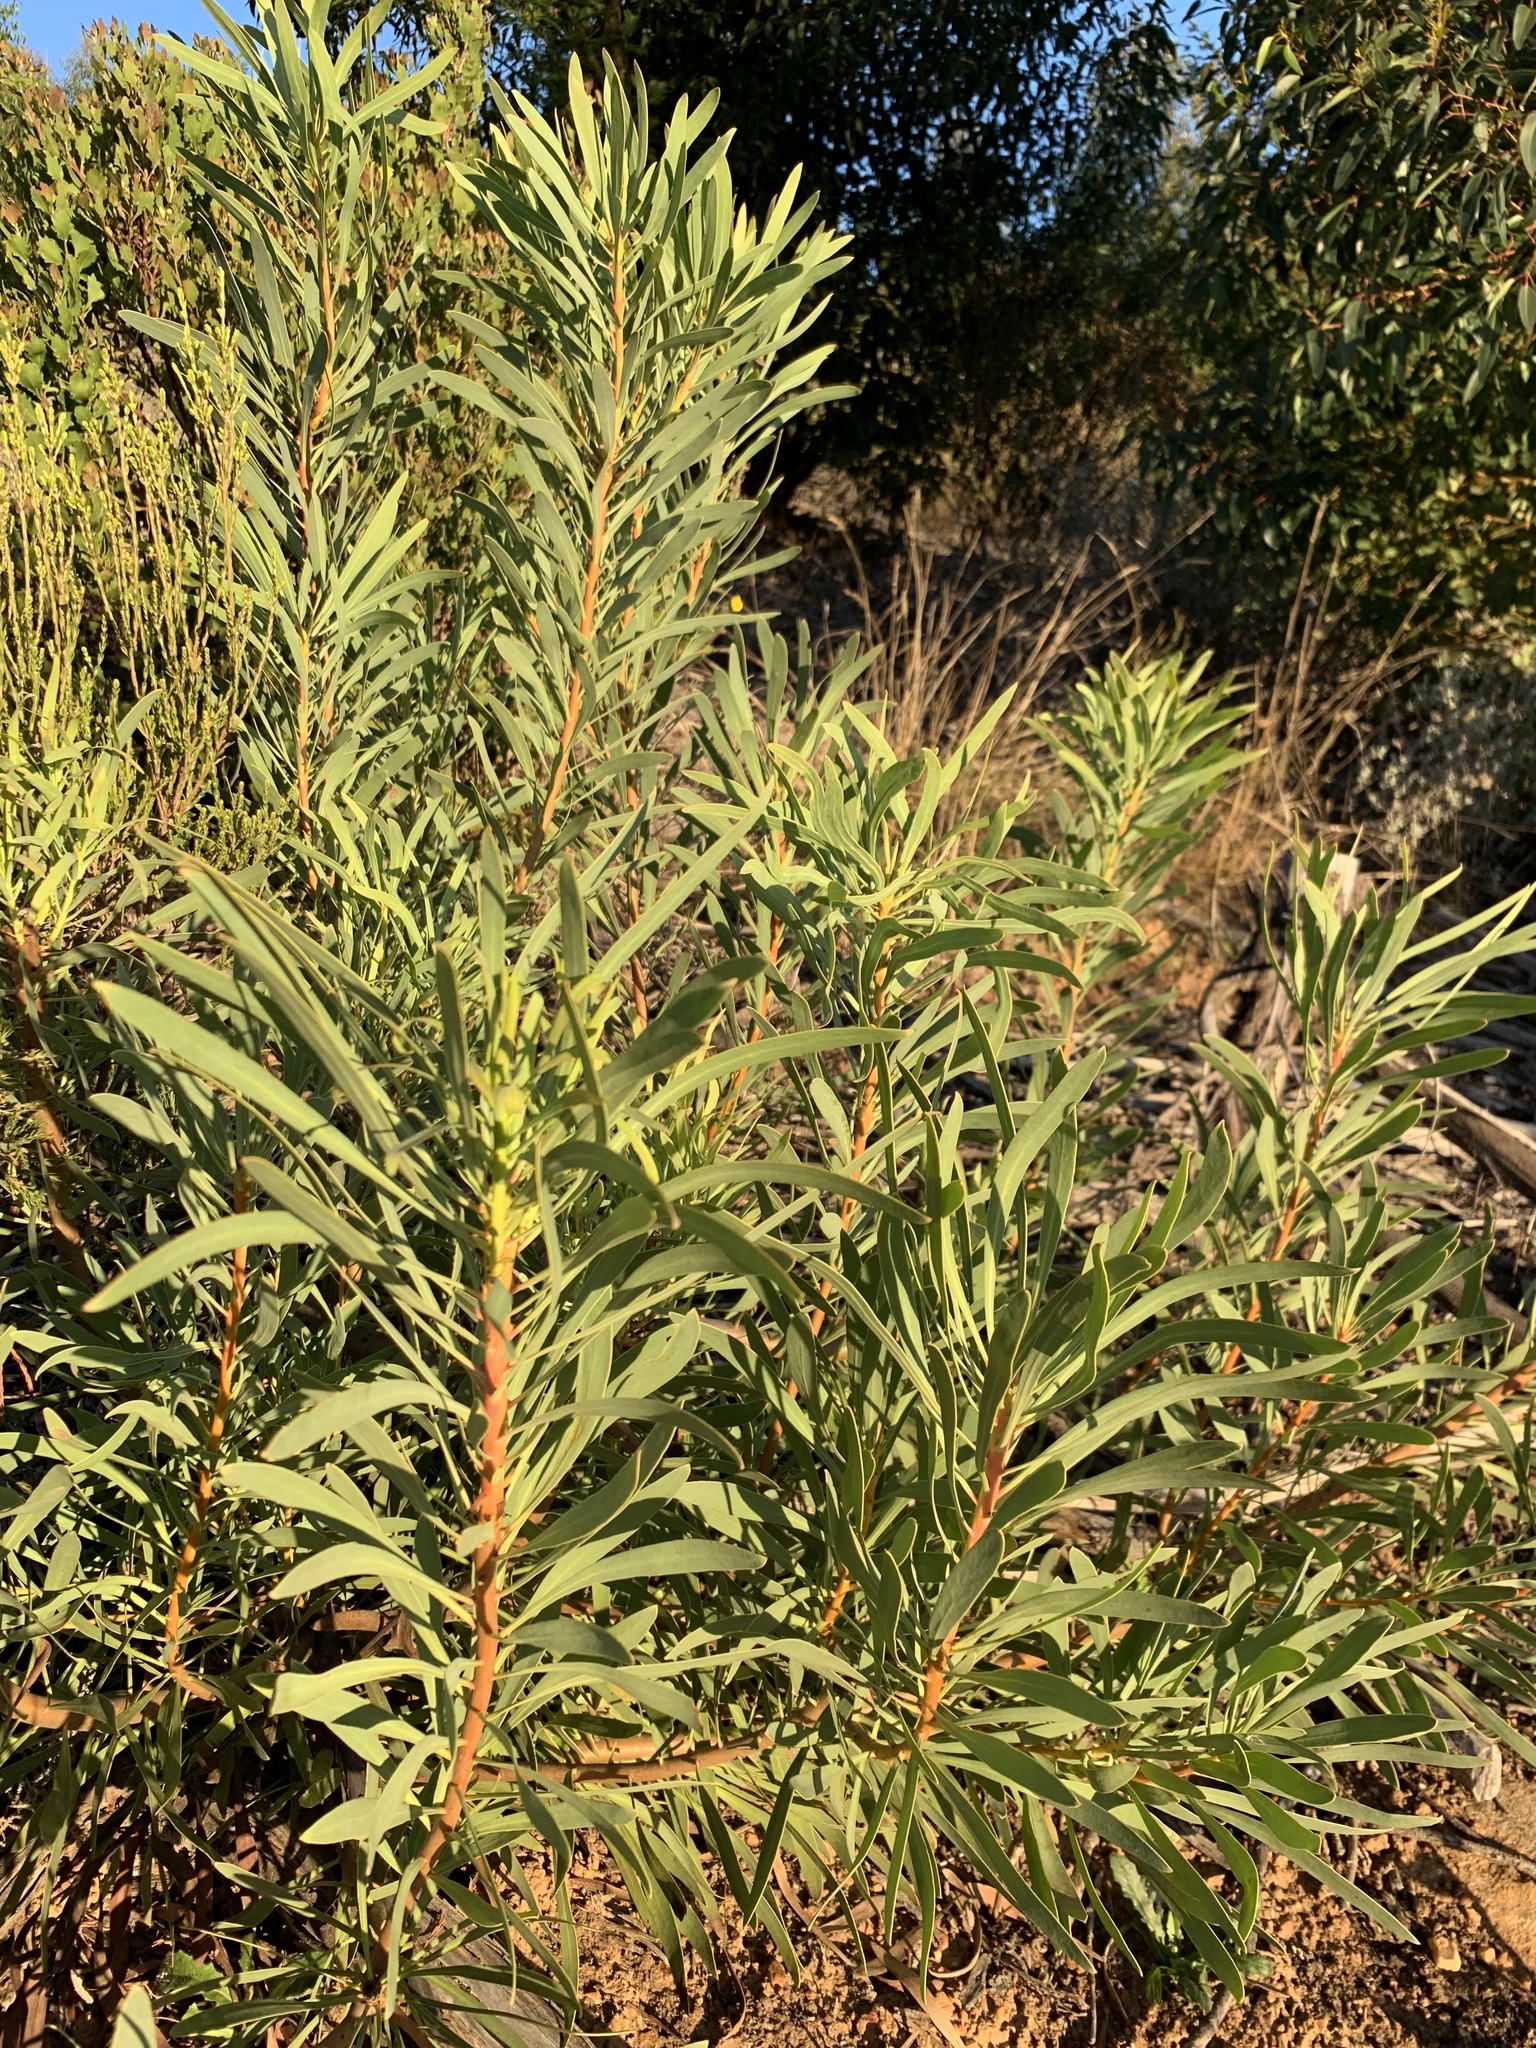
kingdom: Plantae
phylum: Tracheophyta
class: Magnoliopsida
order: Proteales
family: Proteaceae
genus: Protea
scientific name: Protea repens
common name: Sugarbush
